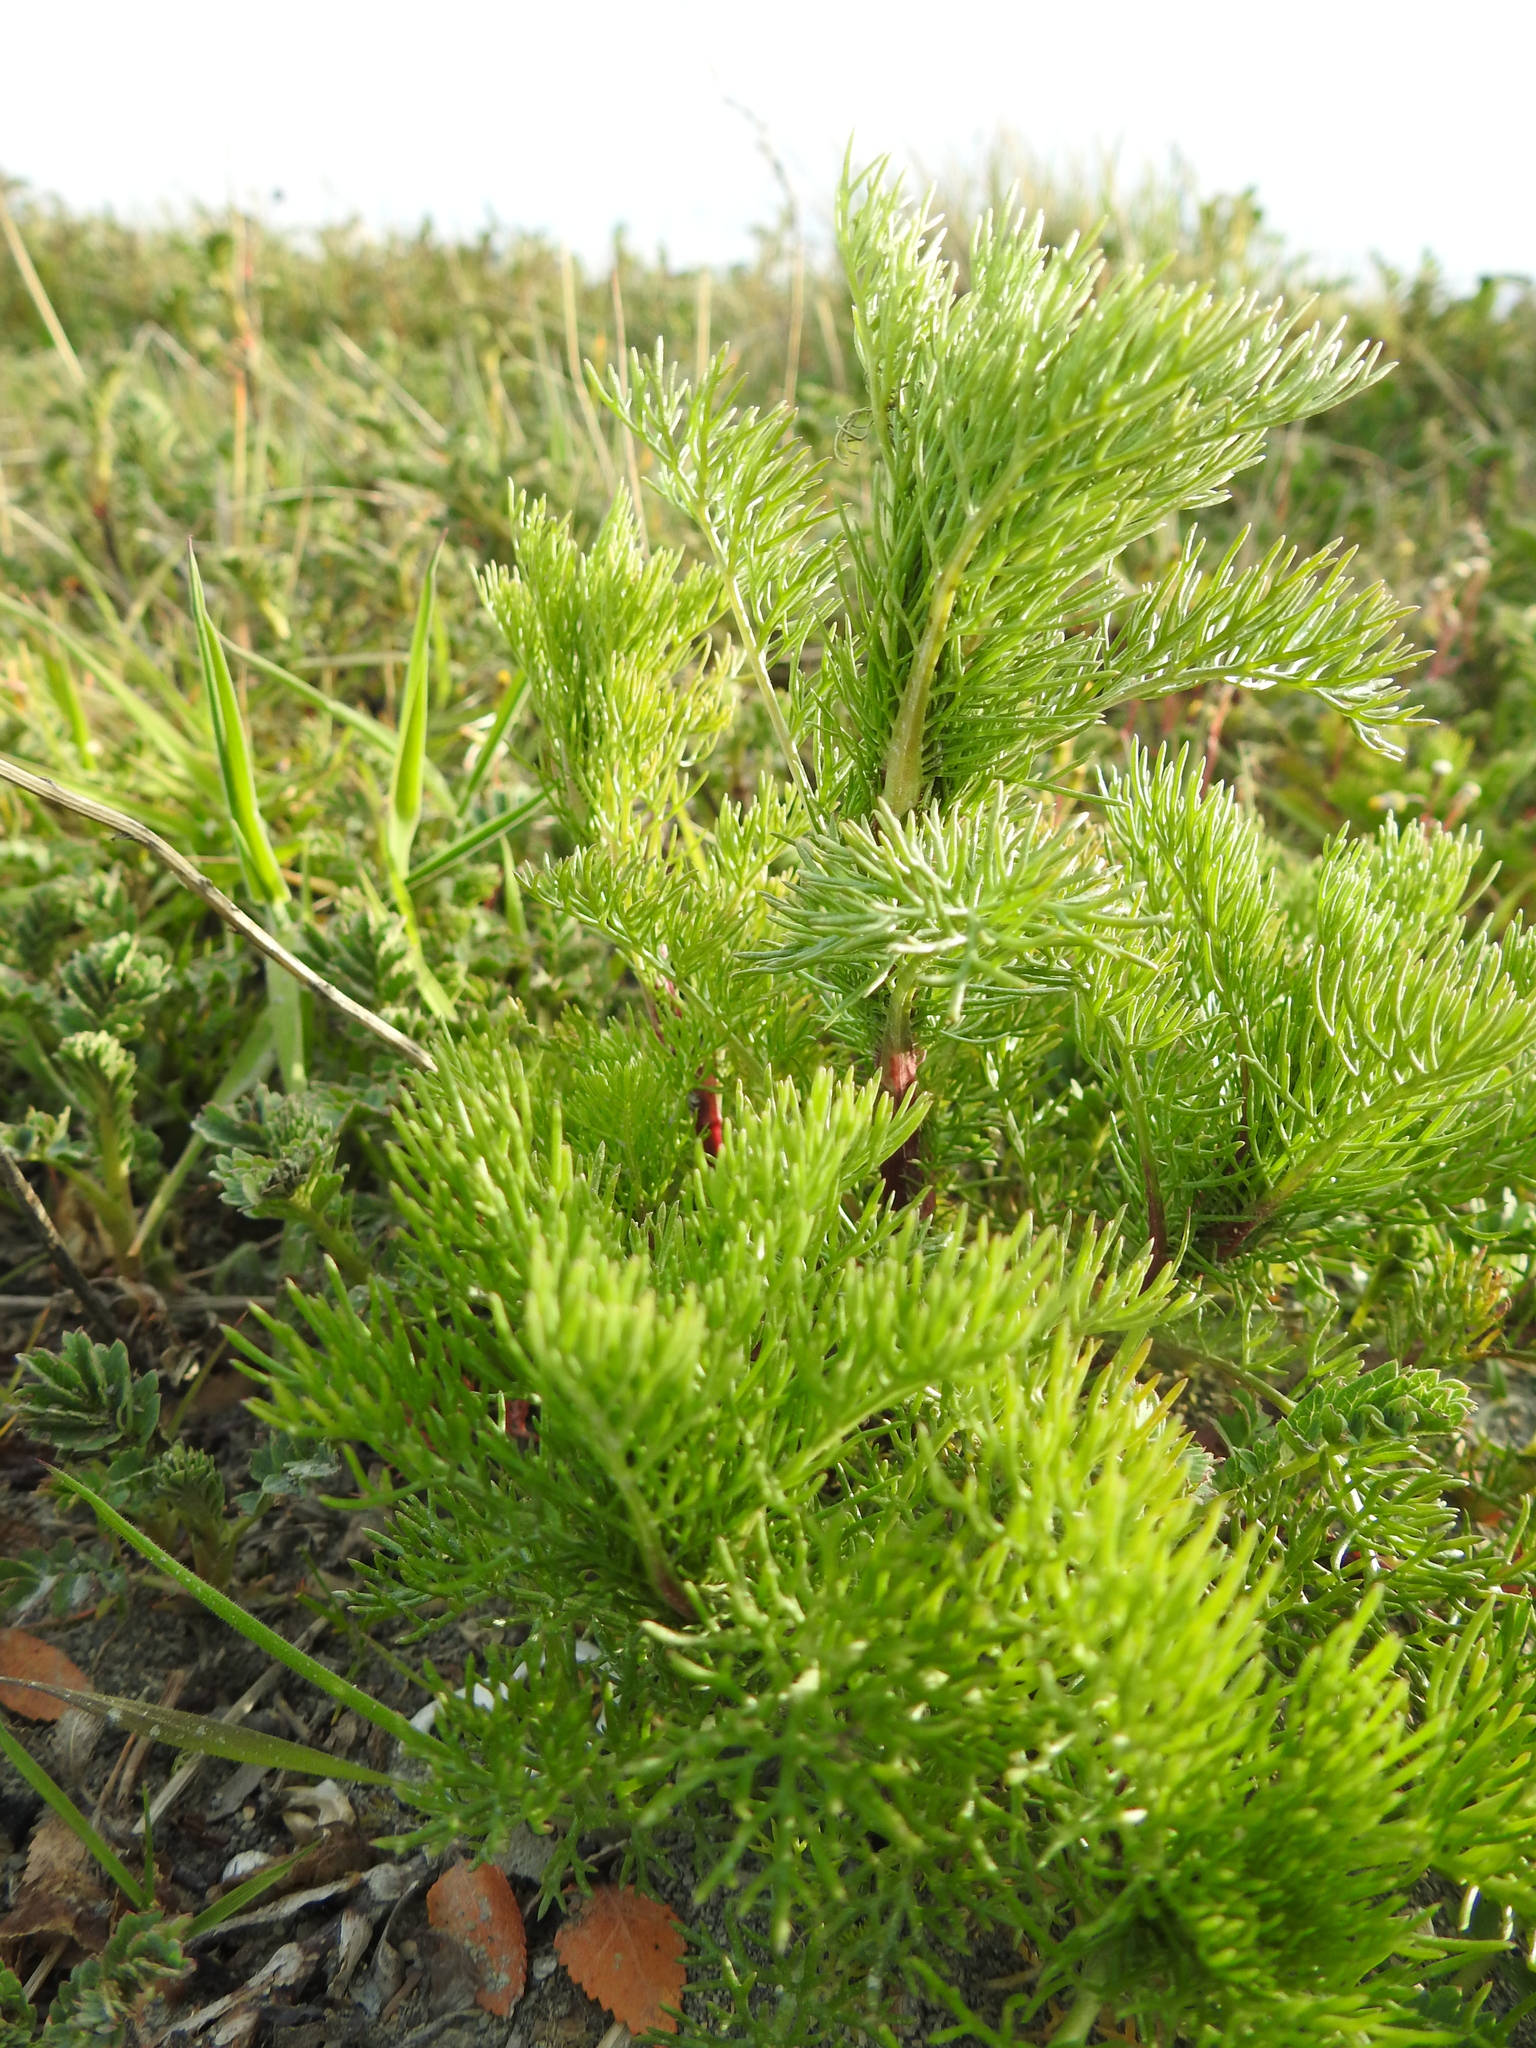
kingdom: Plantae
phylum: Tracheophyta
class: Magnoliopsida
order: Asterales
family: Asteraceae
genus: Tripleurospermum
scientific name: Tripleurospermum inodorum
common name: Scentless mayweed
